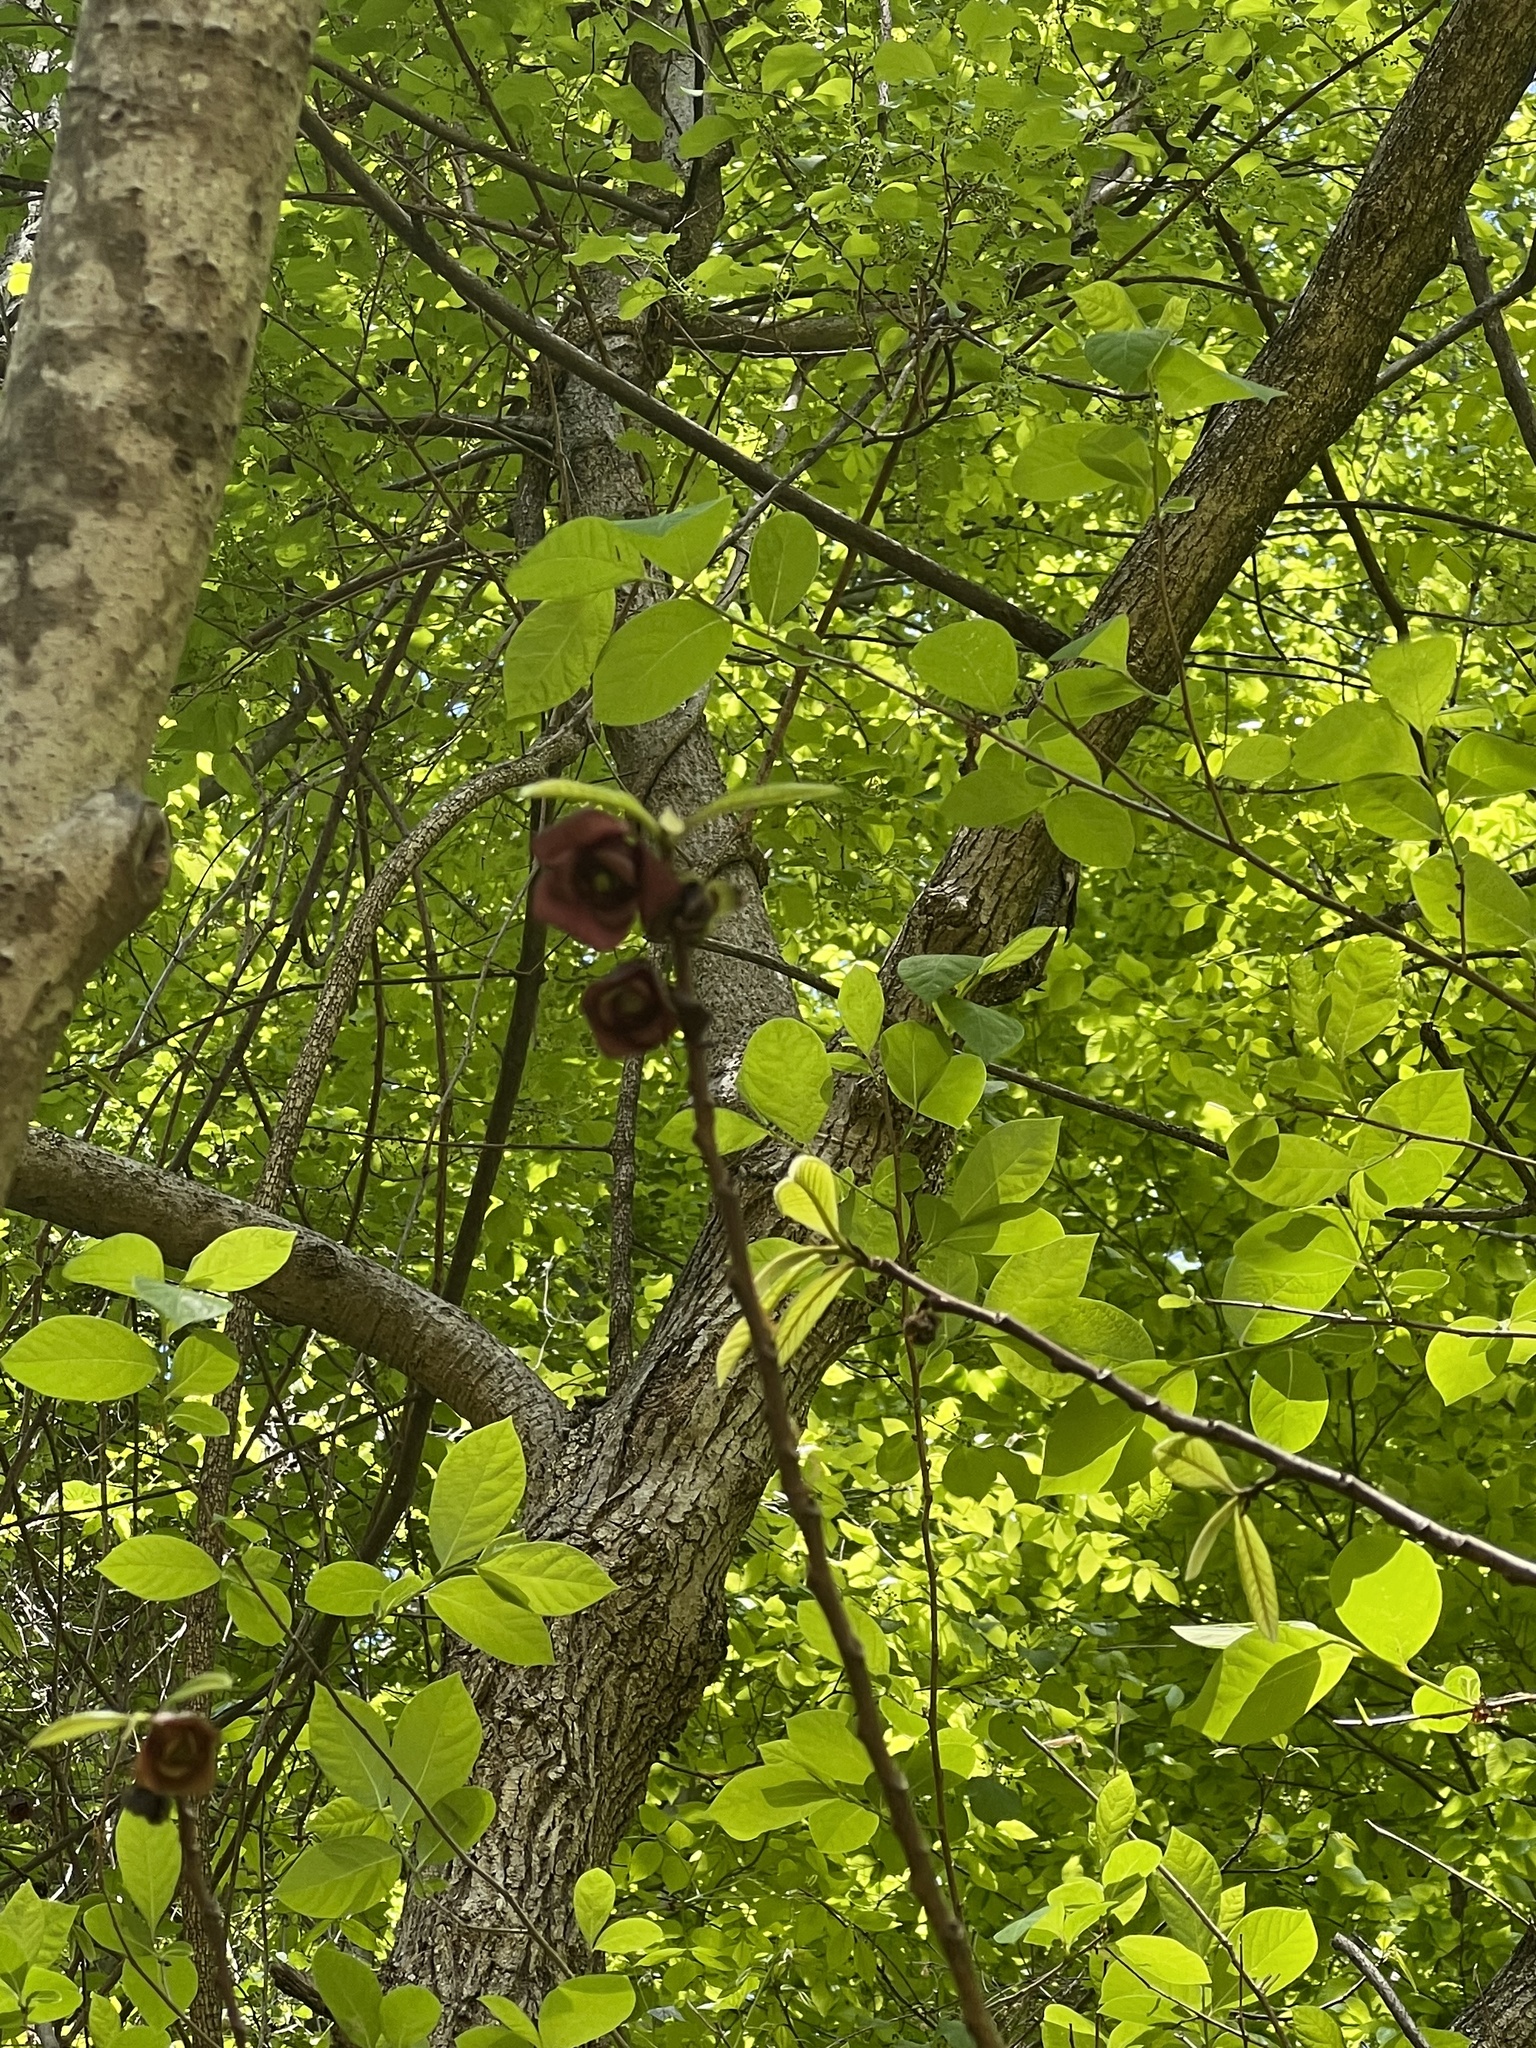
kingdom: Plantae
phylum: Tracheophyta
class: Magnoliopsida
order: Magnoliales
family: Annonaceae
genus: Asimina
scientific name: Asimina triloba
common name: Dog-banana
